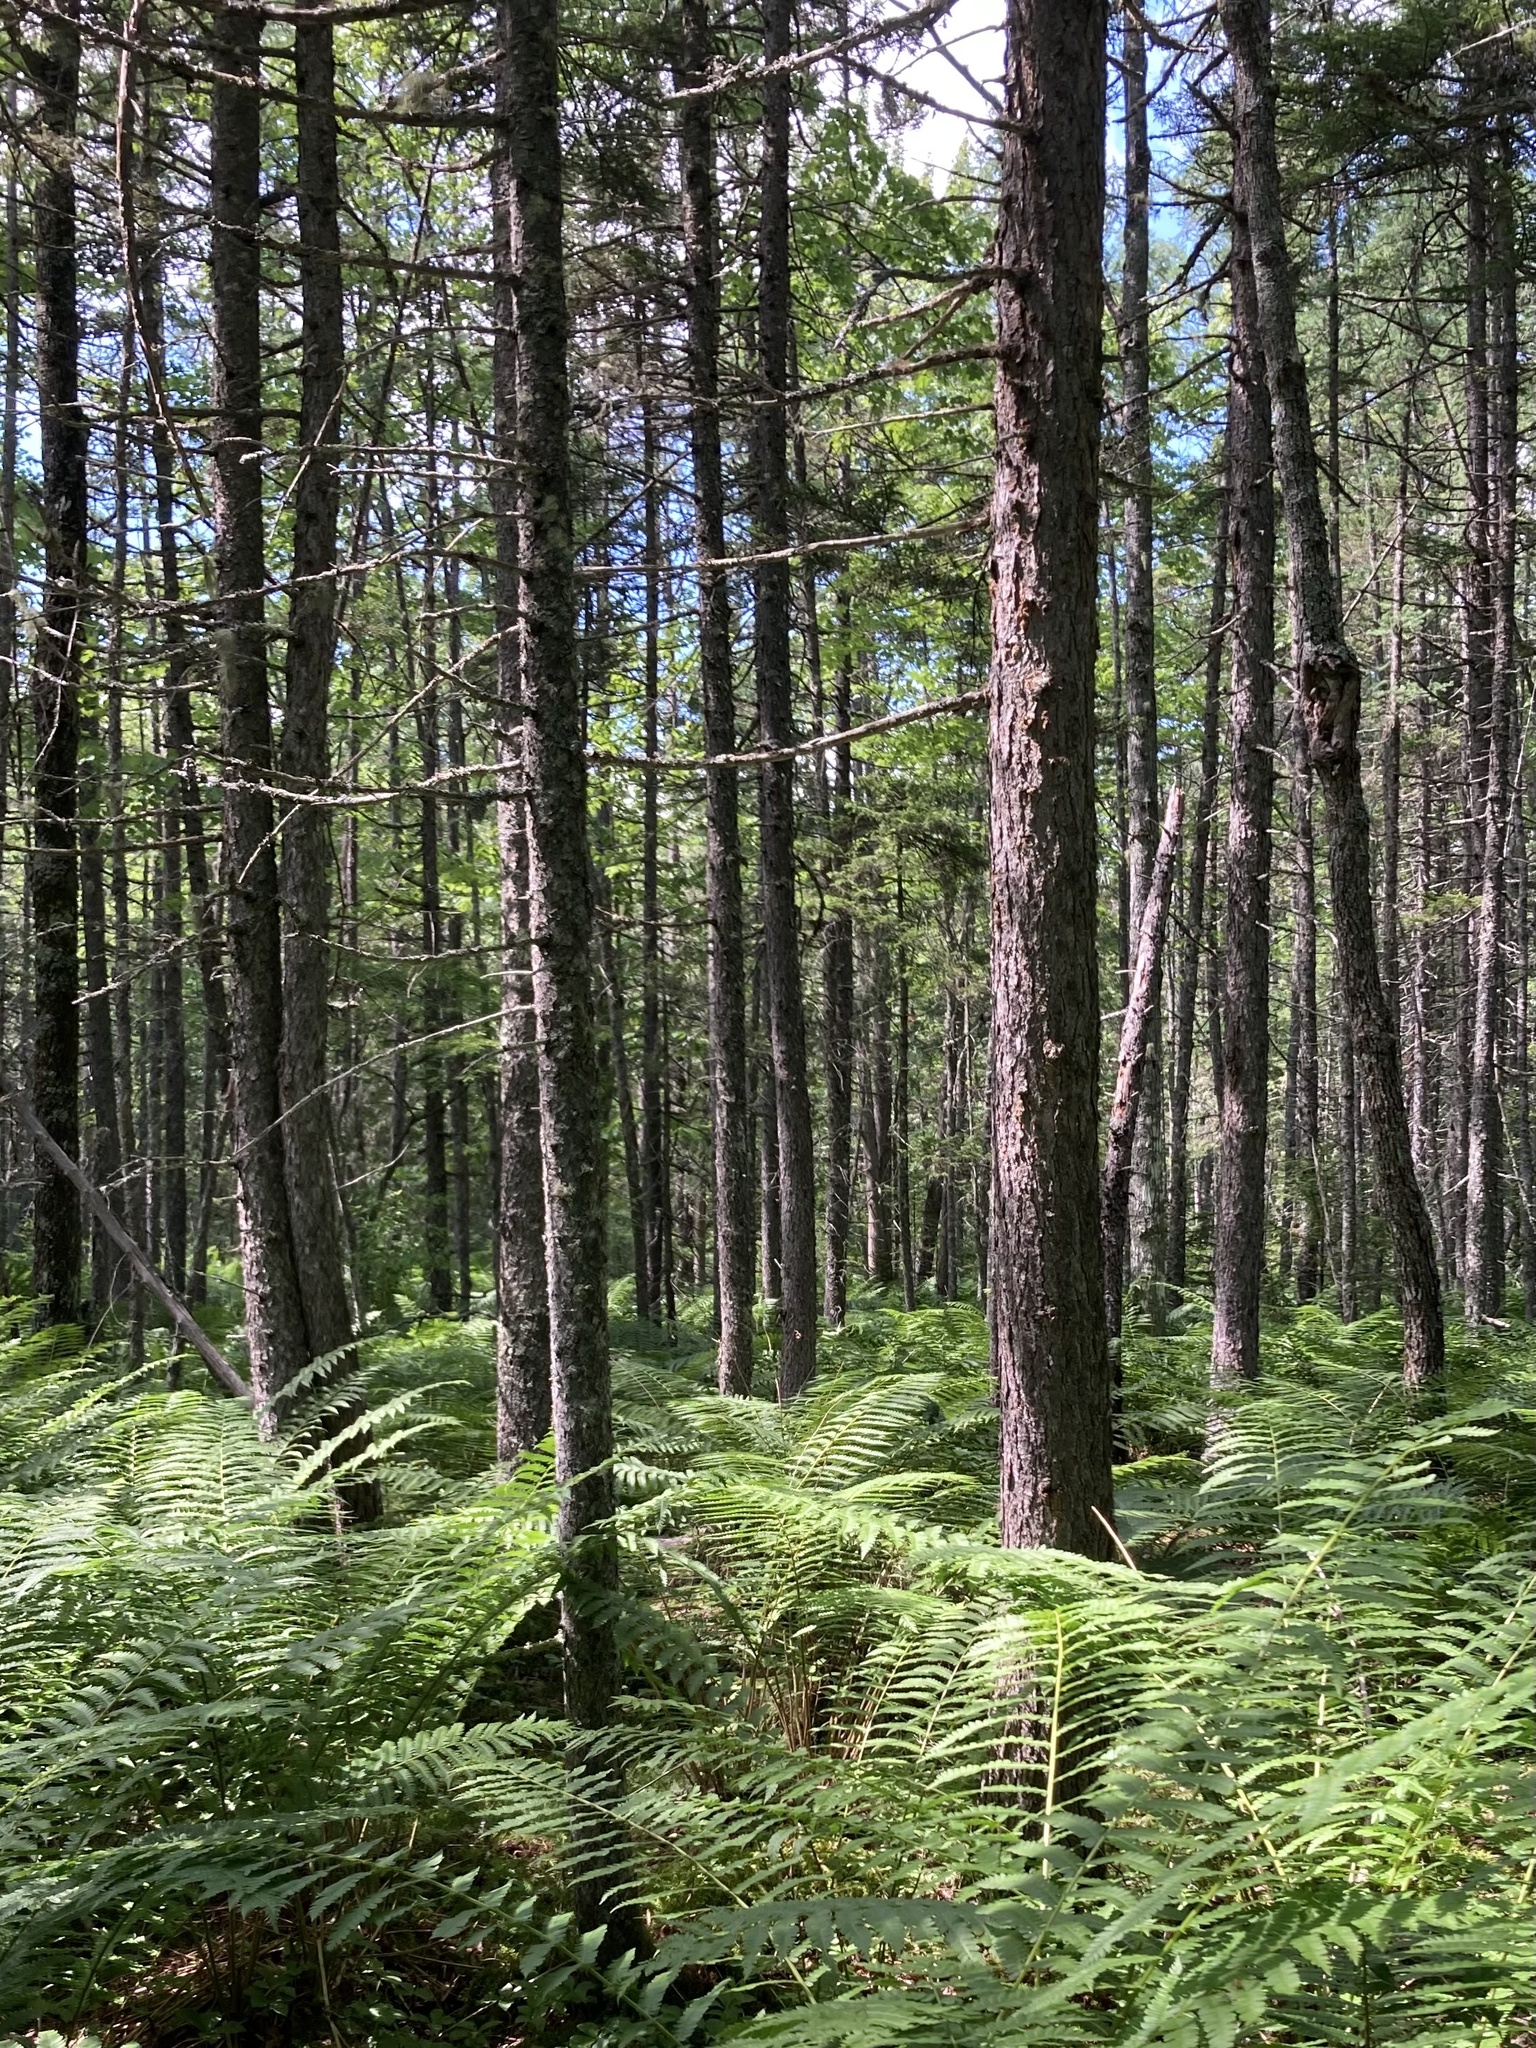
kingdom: Plantae
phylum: Tracheophyta
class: Pinopsida
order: Pinales
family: Pinaceae
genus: Picea
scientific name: Picea rubens
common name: Red spruce
